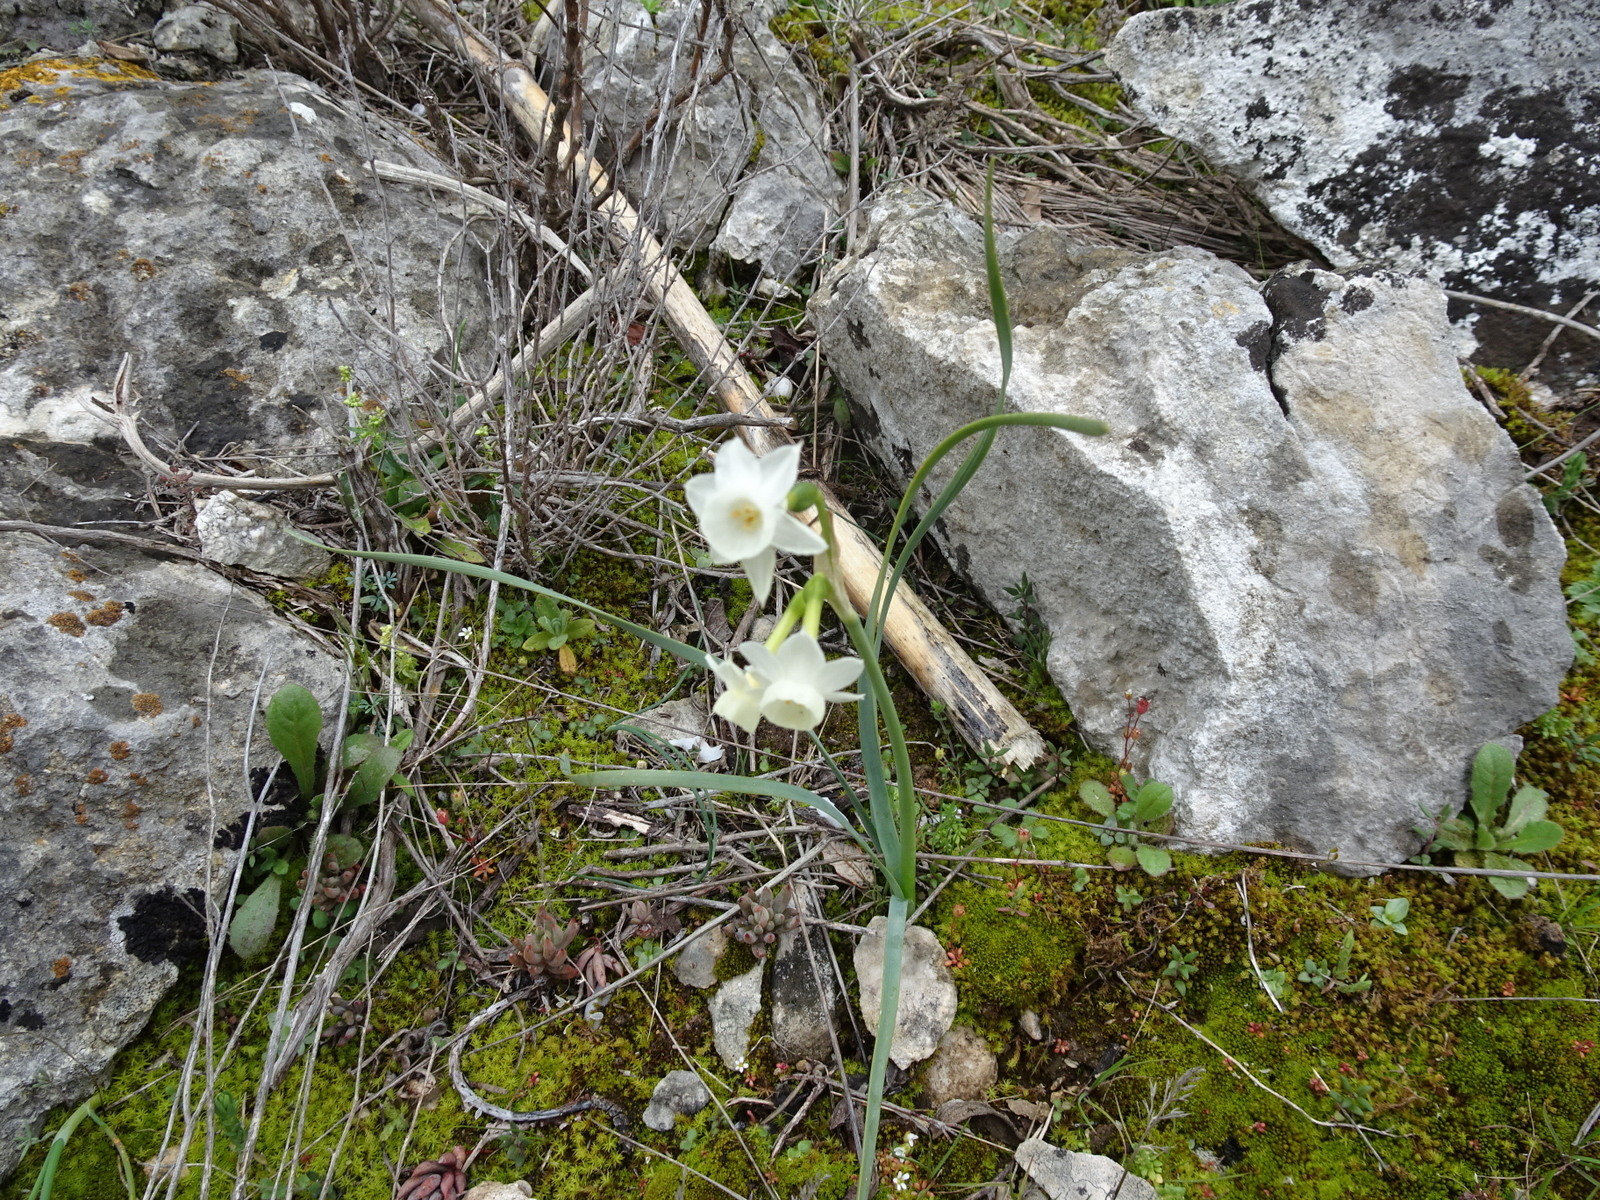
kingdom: Plantae
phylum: Tracheophyta
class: Liliopsida
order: Asparagales
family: Amaryllidaceae
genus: Narcissus
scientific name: Narcissus dubius
